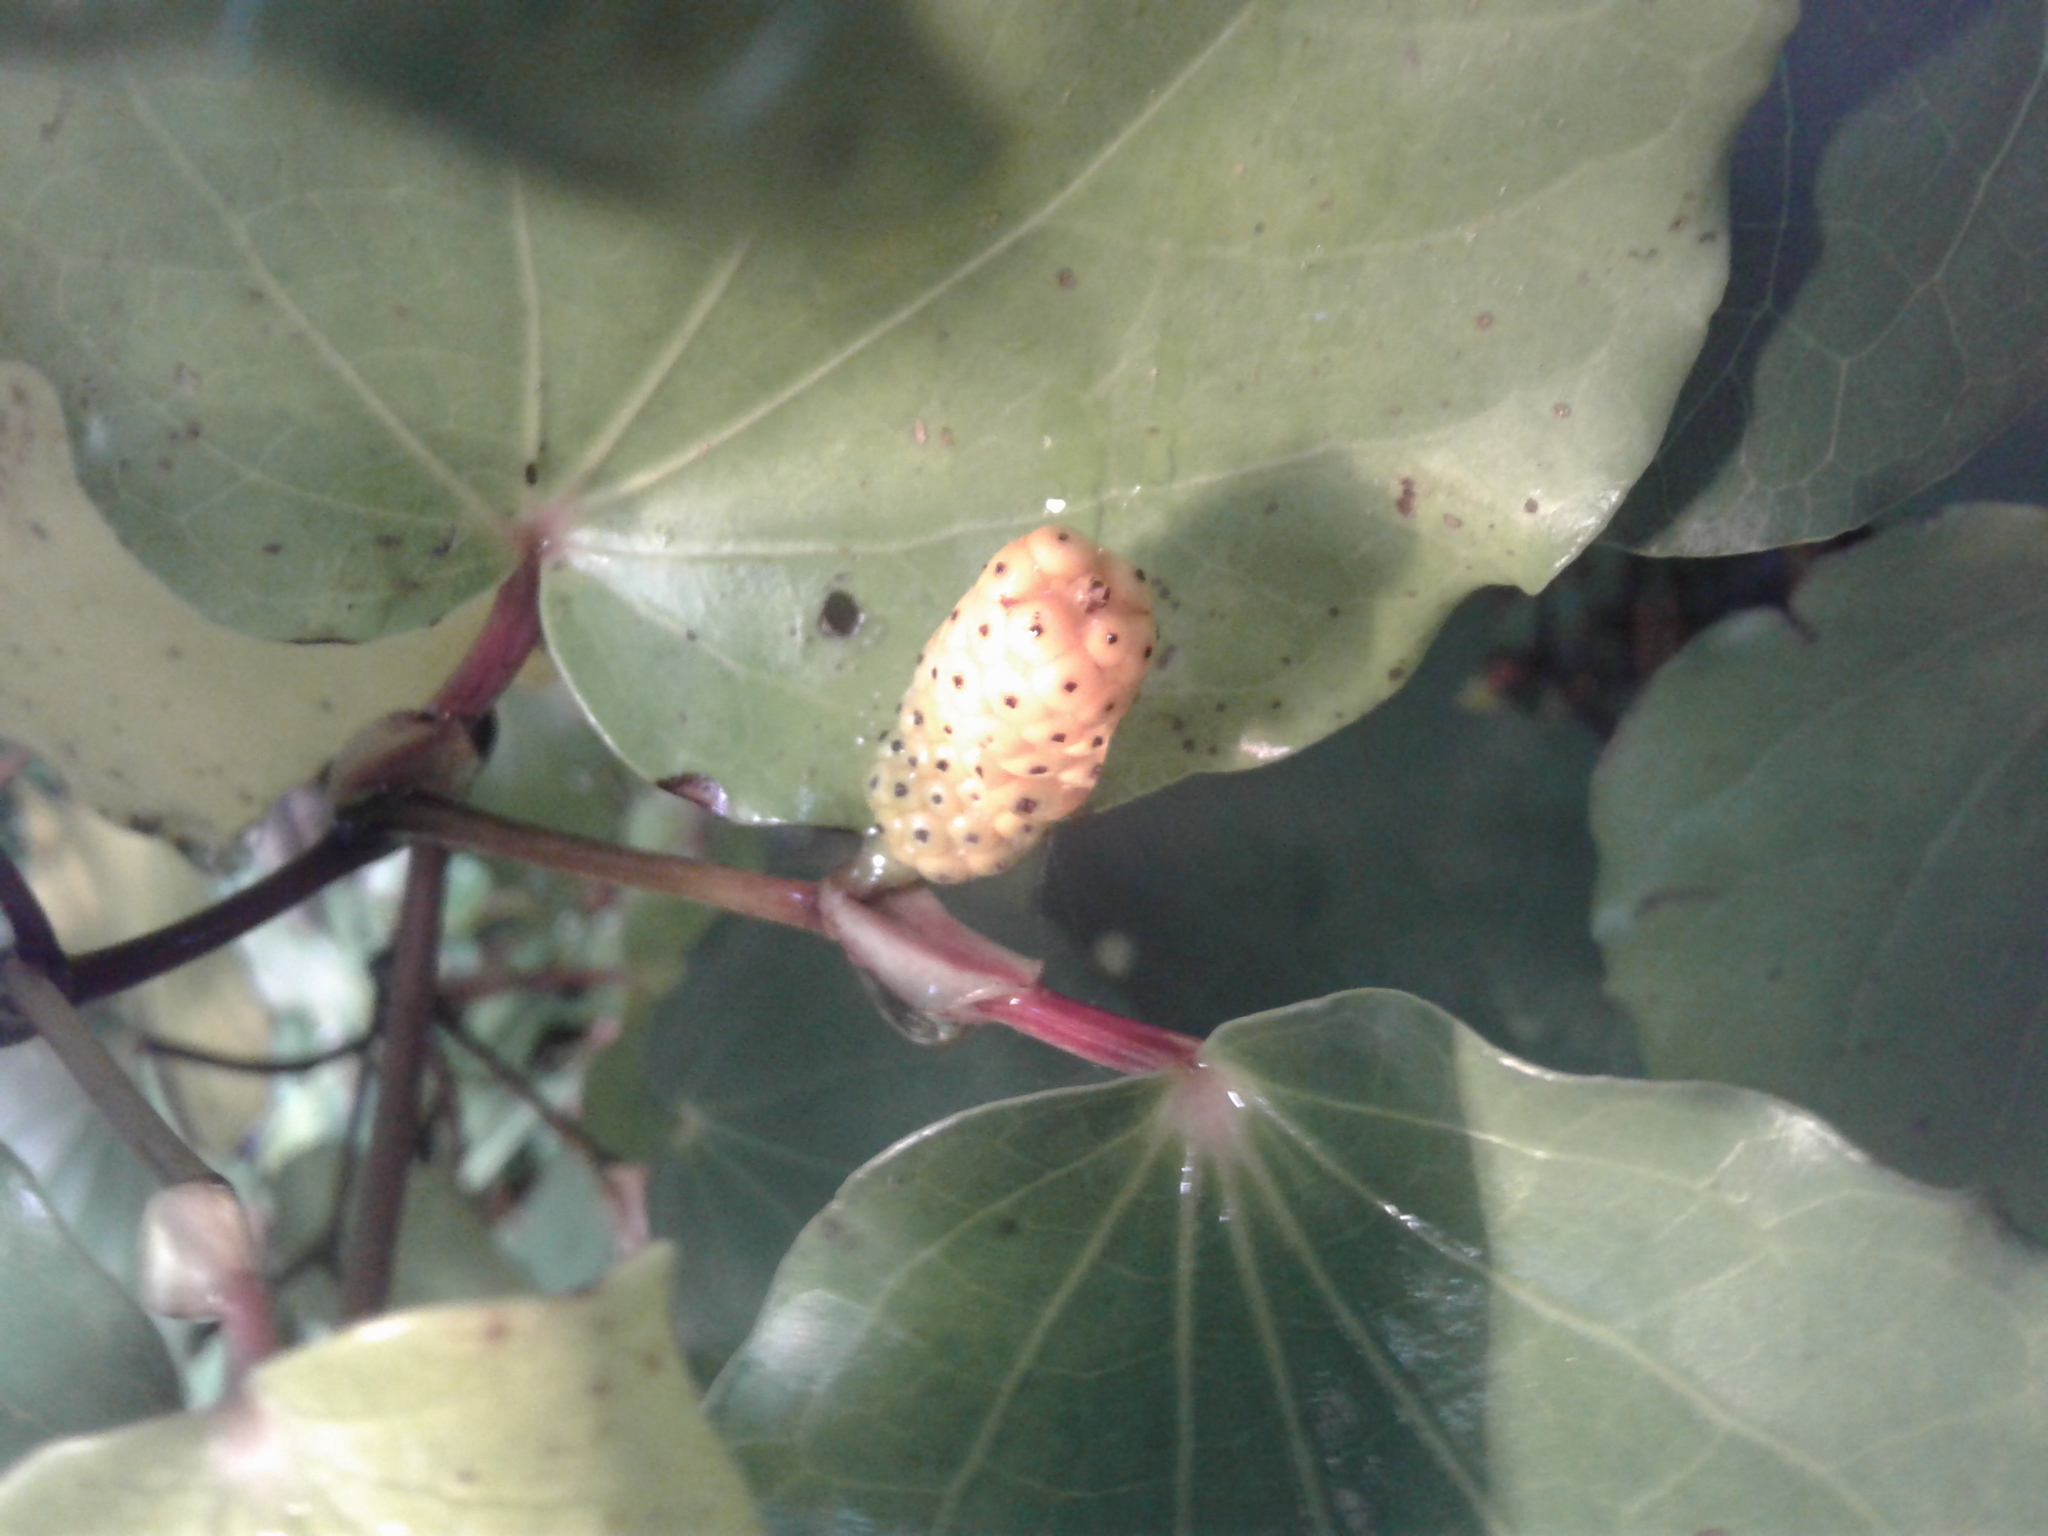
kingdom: Plantae
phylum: Tracheophyta
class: Magnoliopsida
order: Piperales
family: Piperaceae
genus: Macropiper
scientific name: Macropiper excelsum
